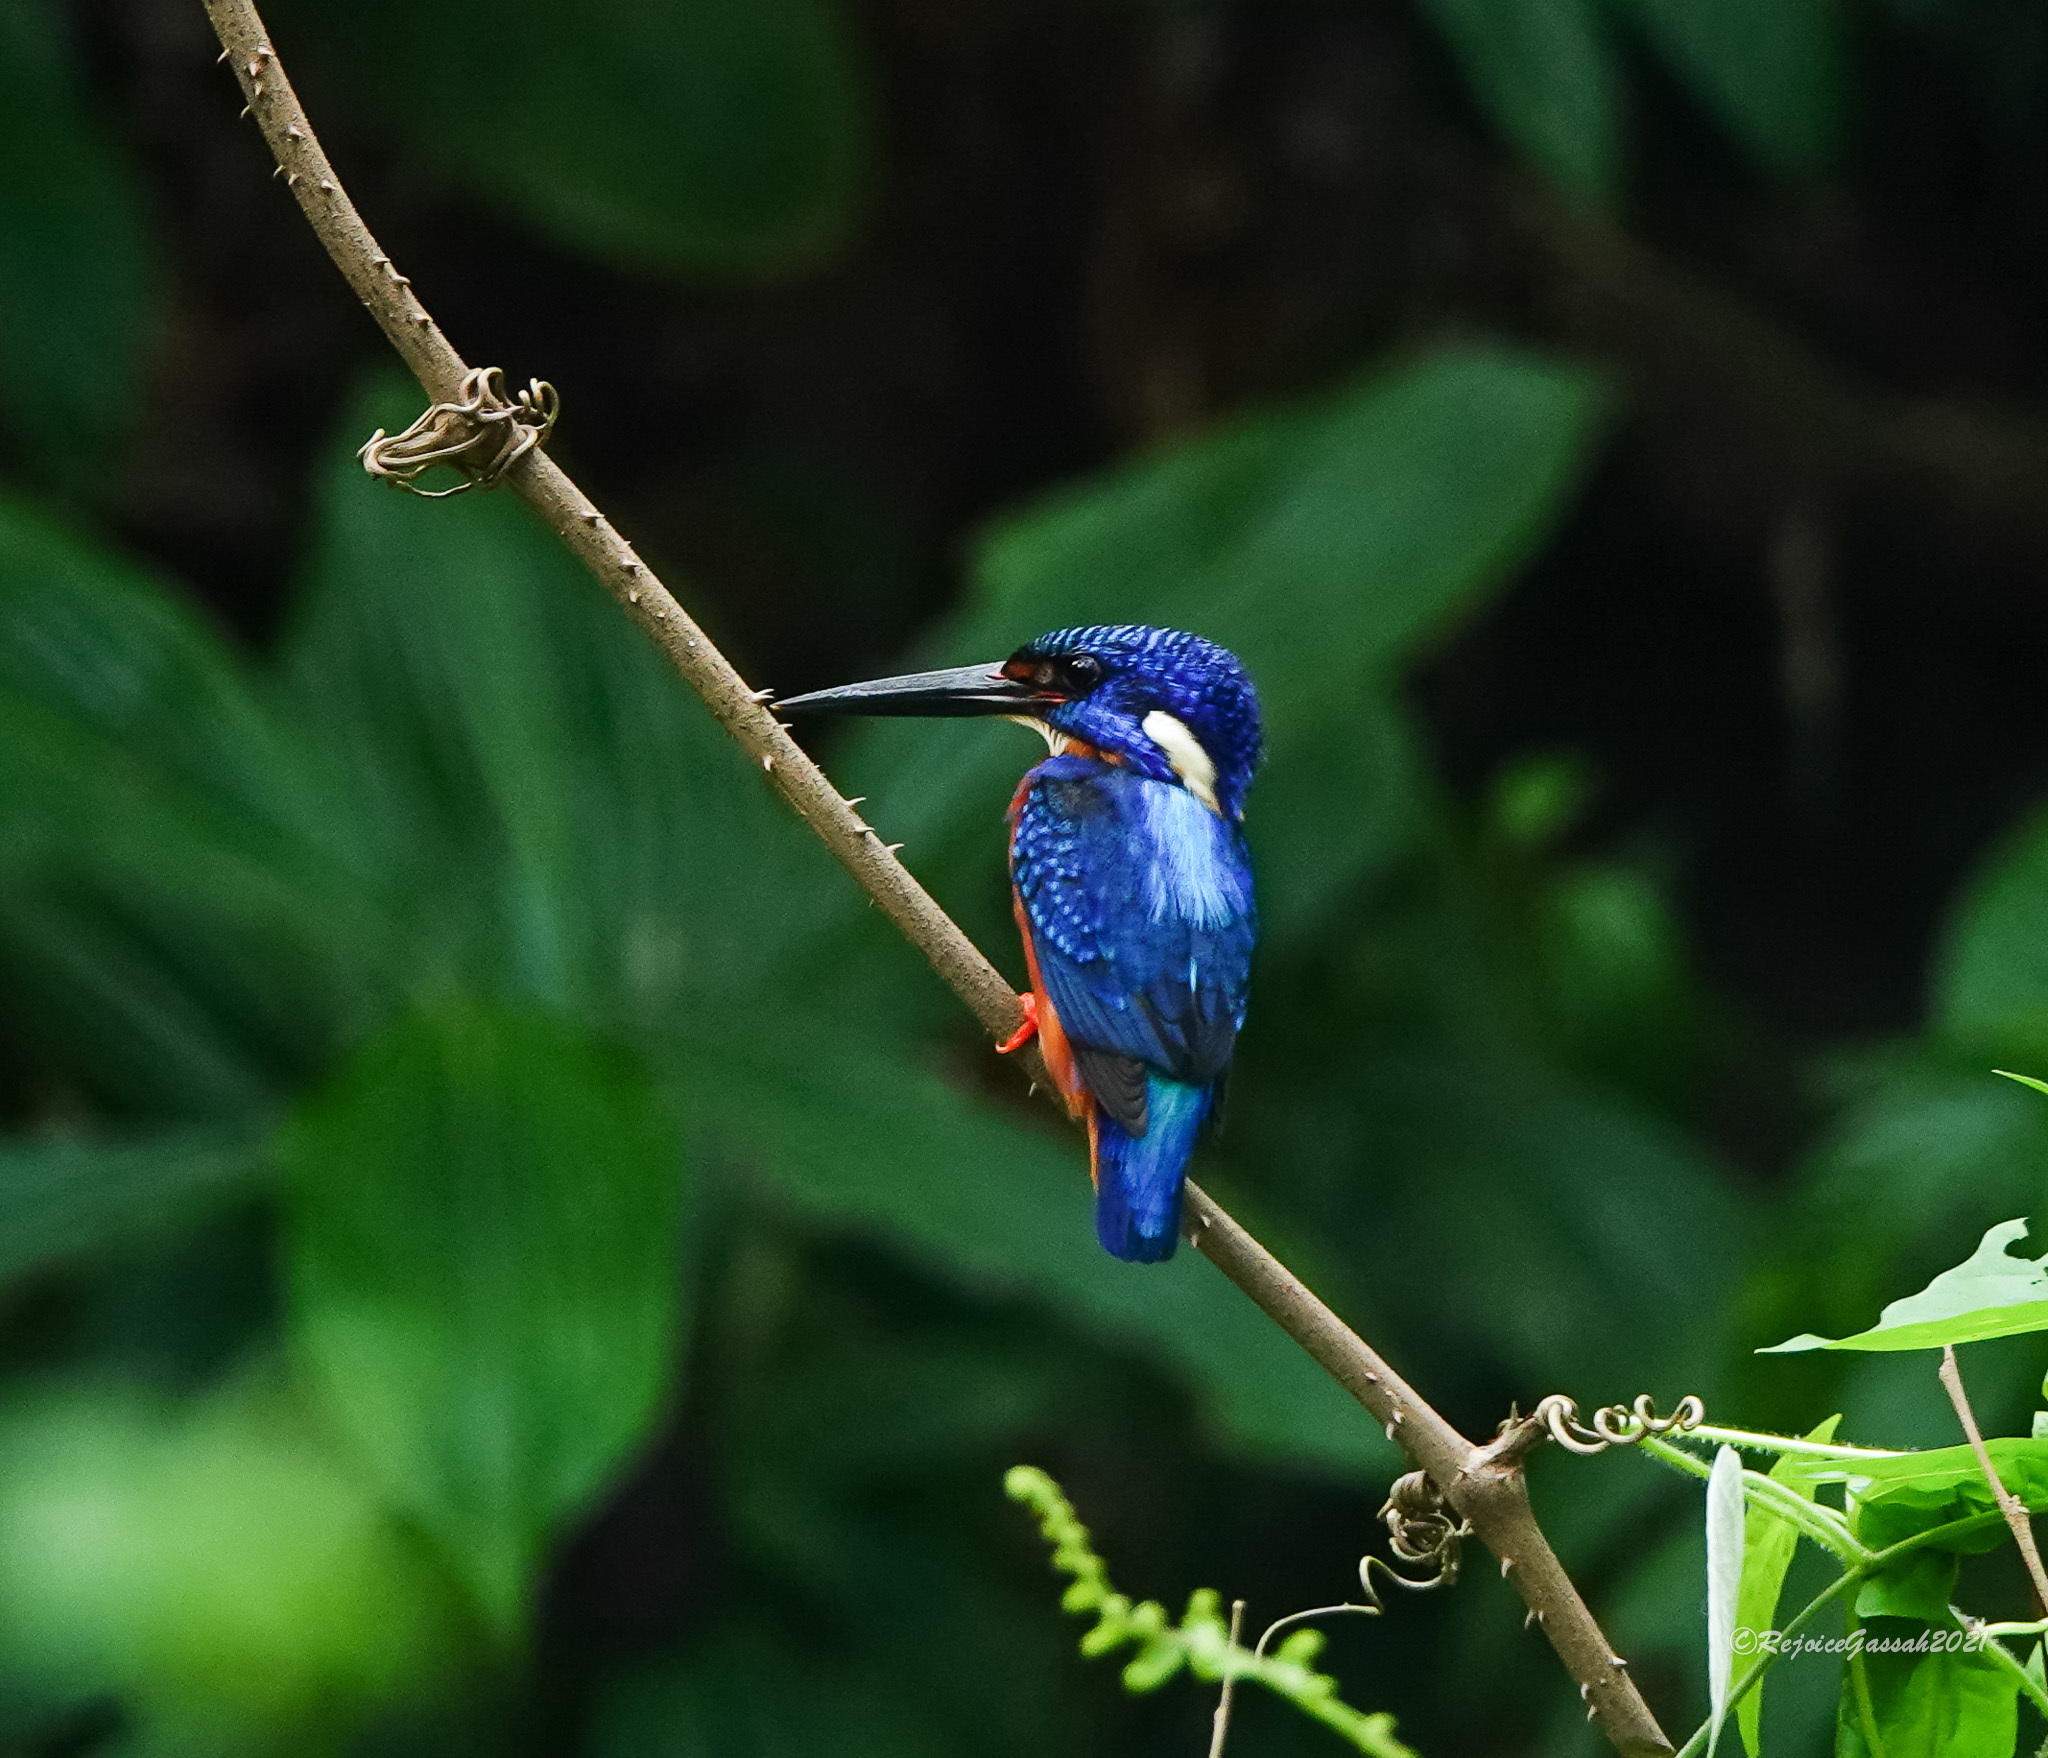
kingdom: Animalia
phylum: Chordata
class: Aves
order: Coraciiformes
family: Alcedinidae
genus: Alcedo
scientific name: Alcedo meninting
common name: Blue-eared kingfisher
